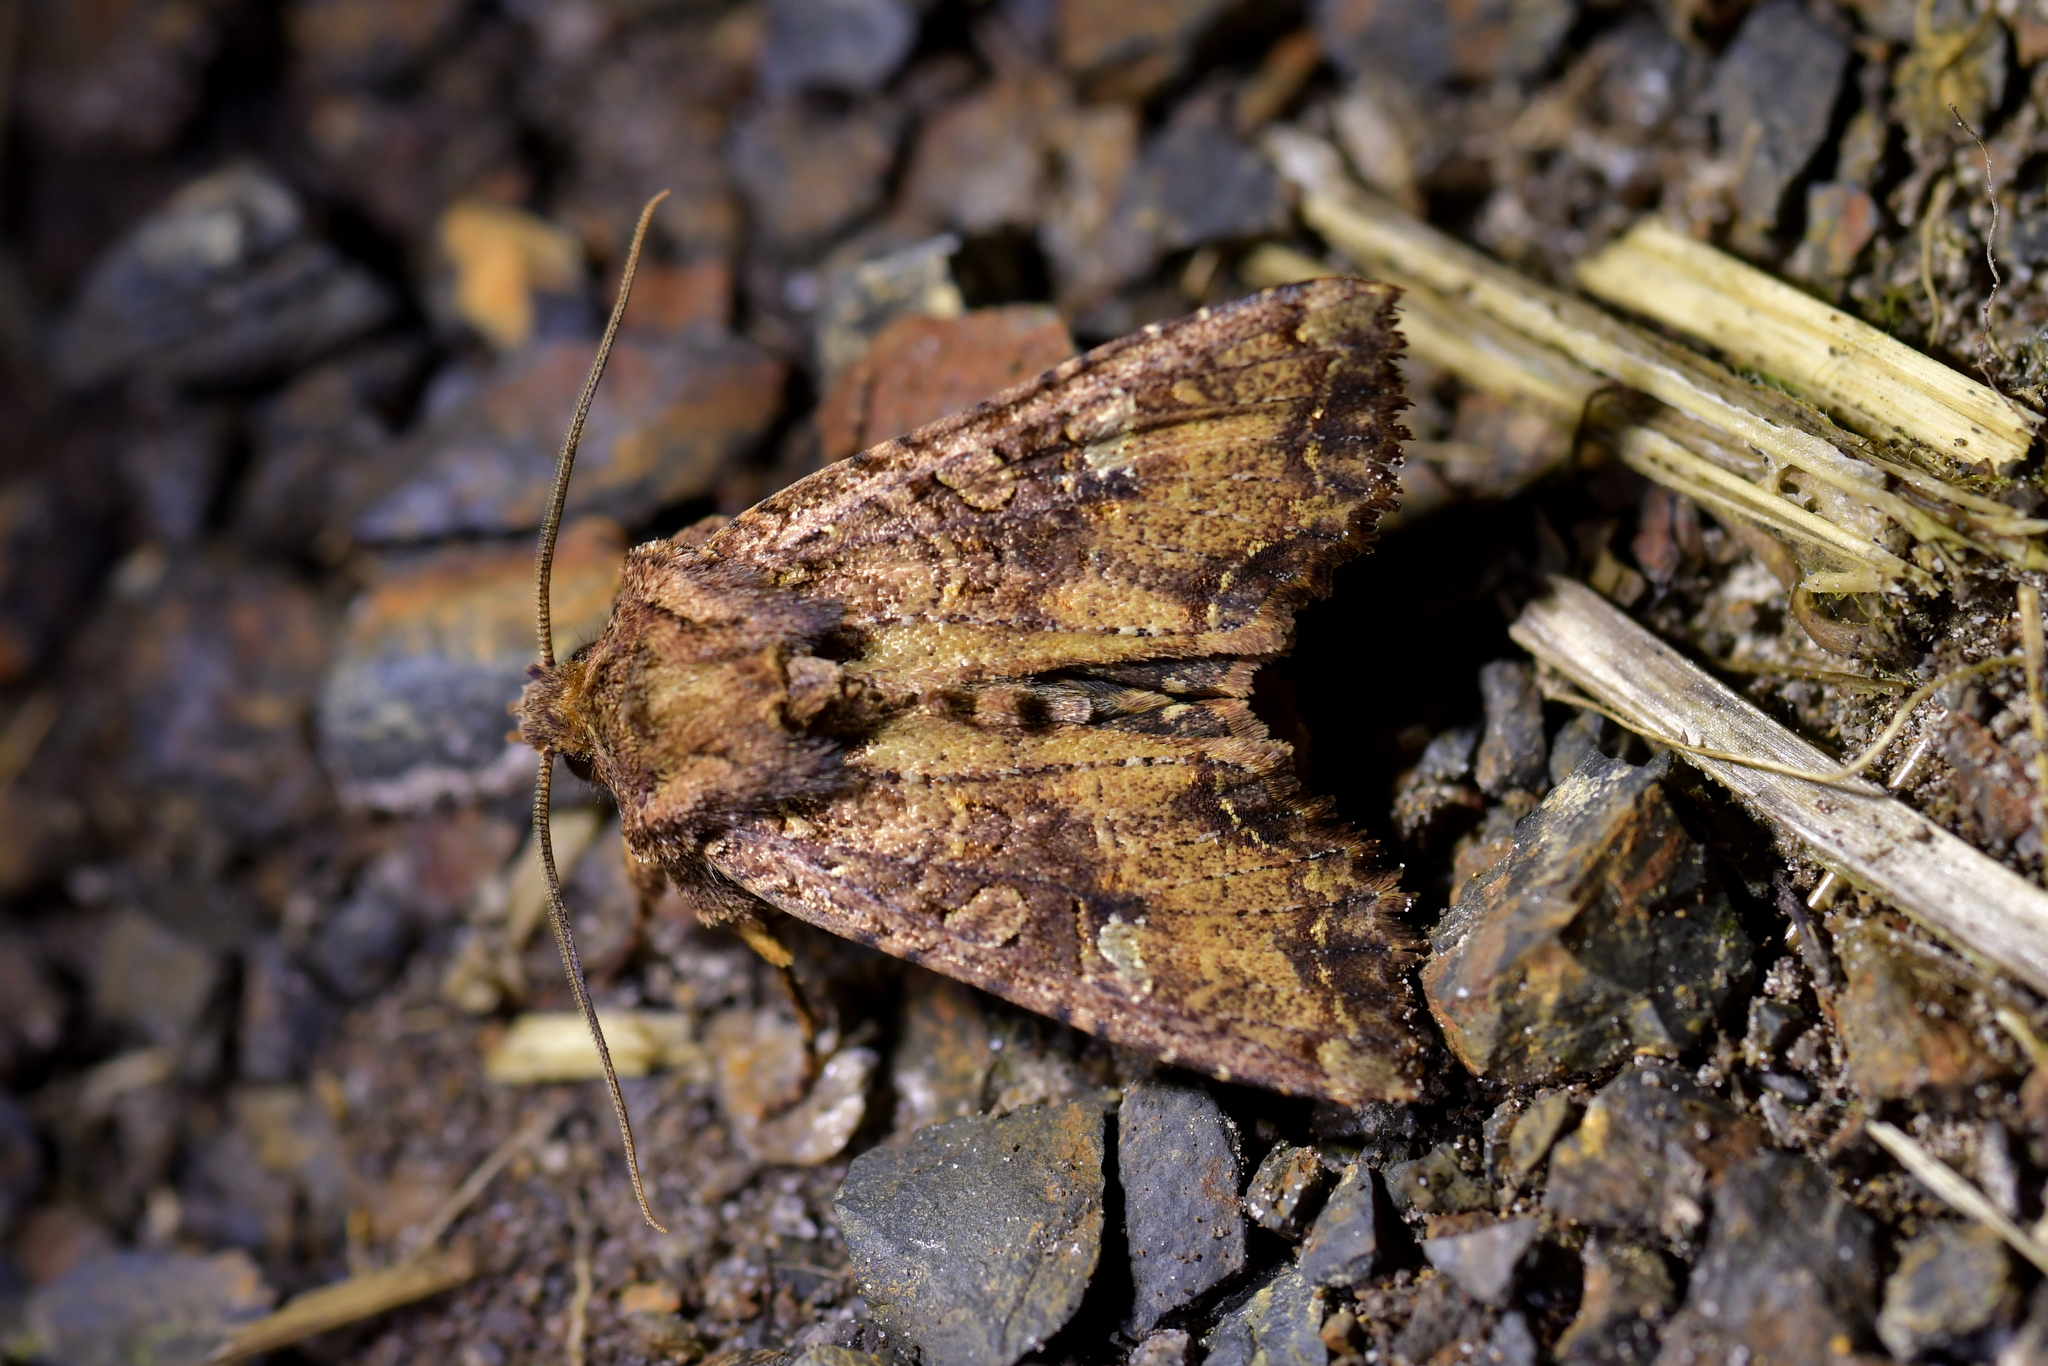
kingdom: Animalia
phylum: Arthropoda
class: Insecta
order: Lepidoptera
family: Noctuidae
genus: Meterana
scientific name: Meterana
